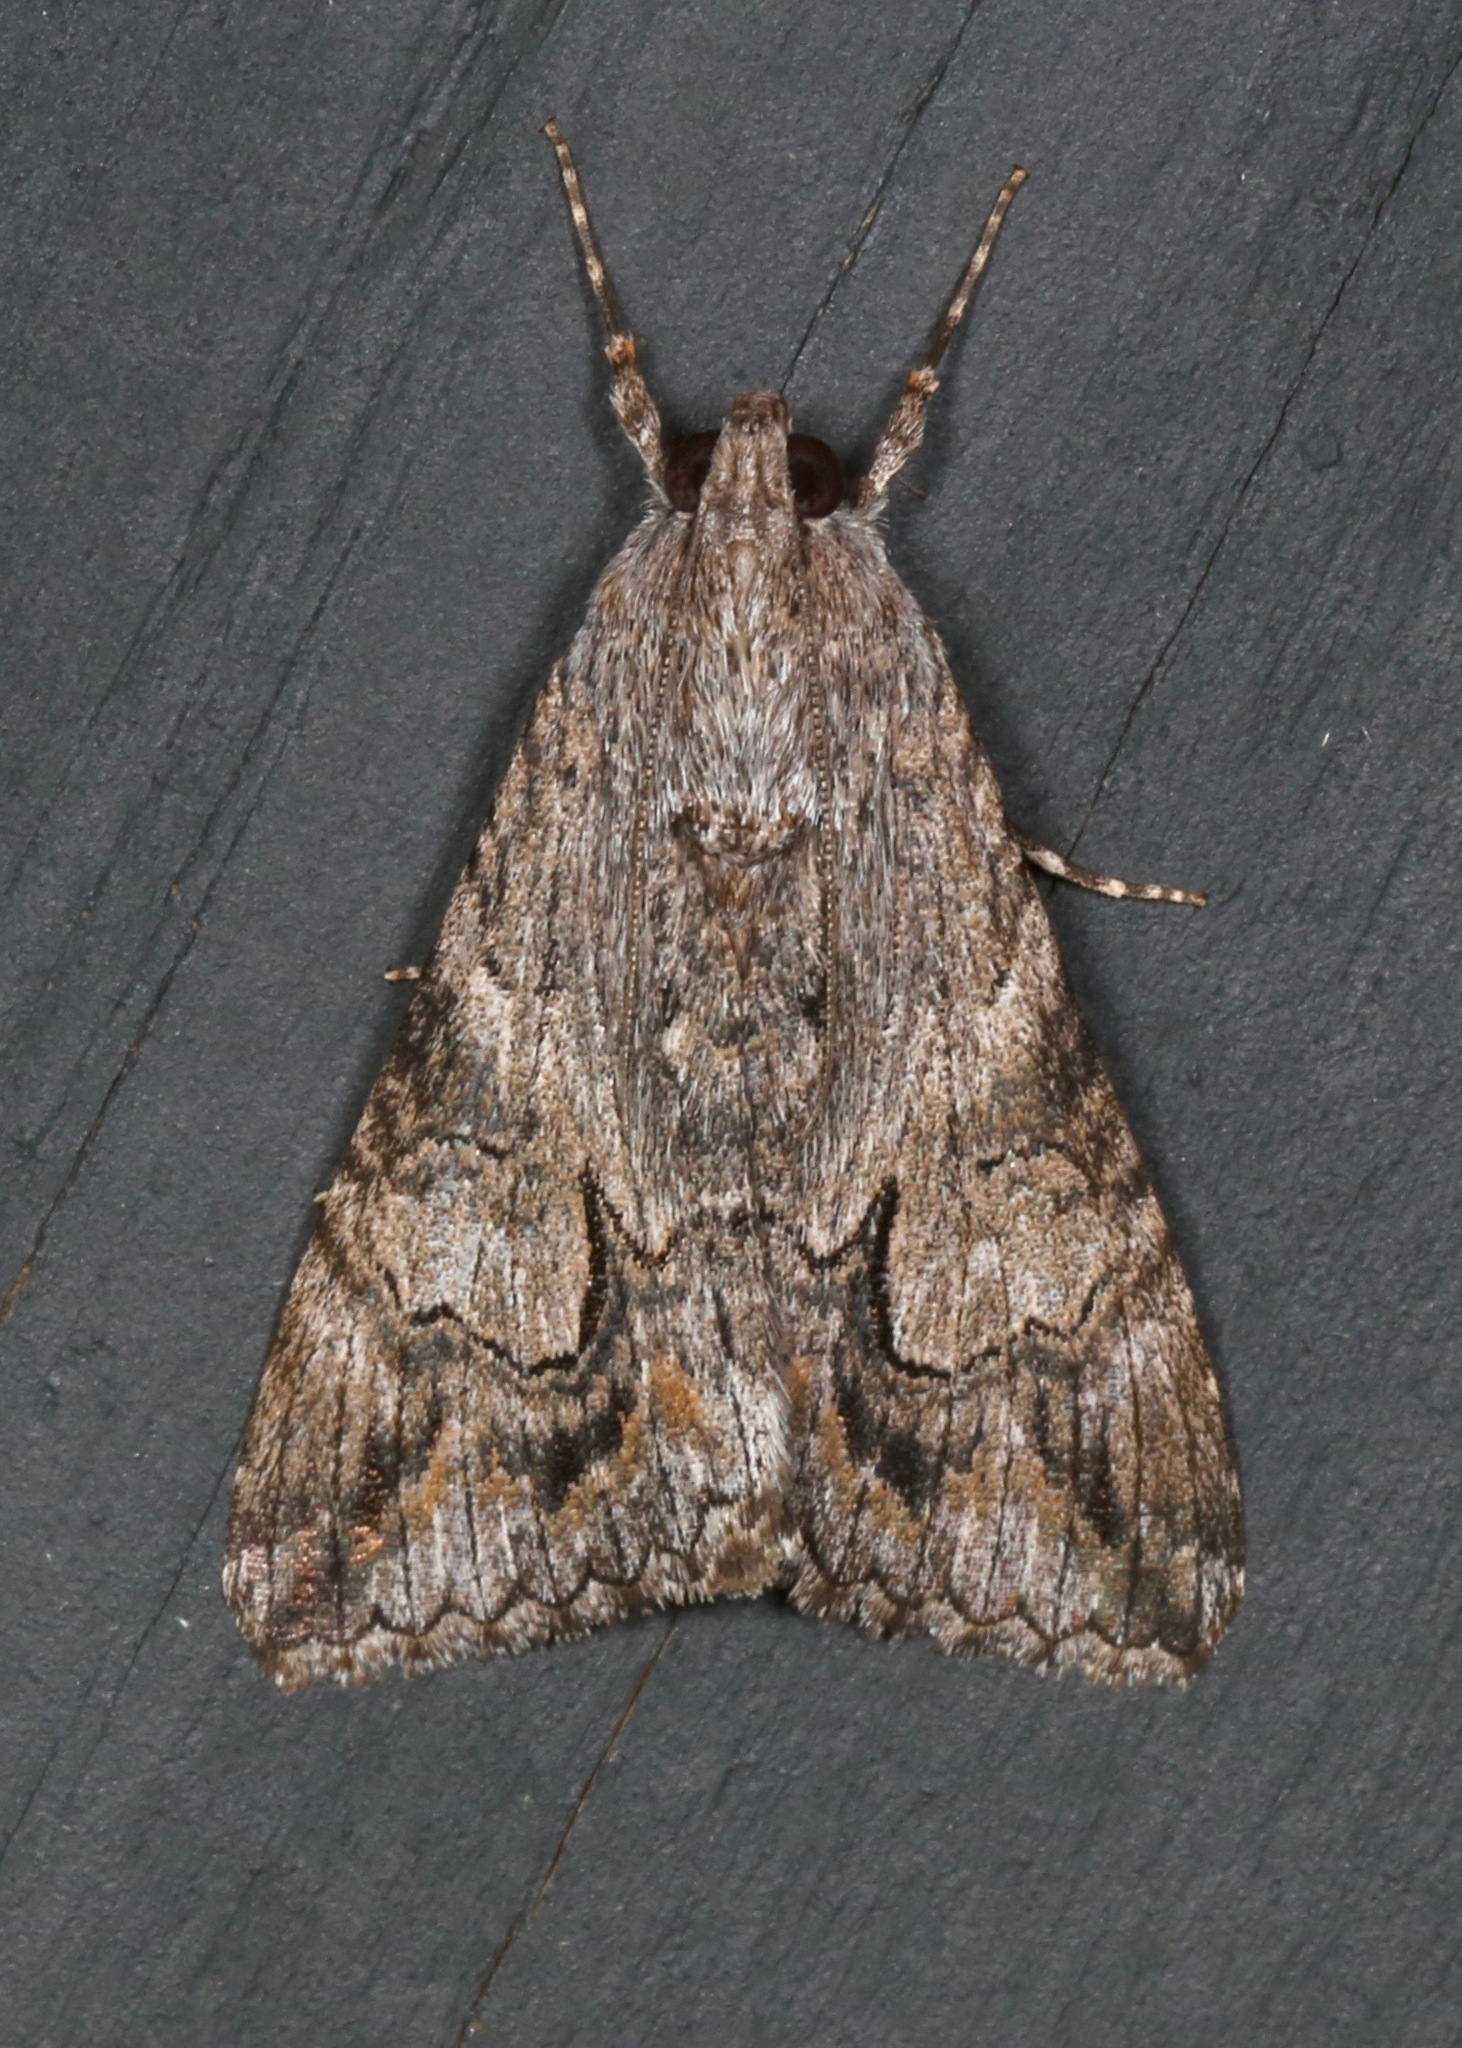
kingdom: Animalia
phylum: Arthropoda
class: Insecta
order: Lepidoptera
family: Erebidae
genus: Melipotis
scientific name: Melipotis jucunda
